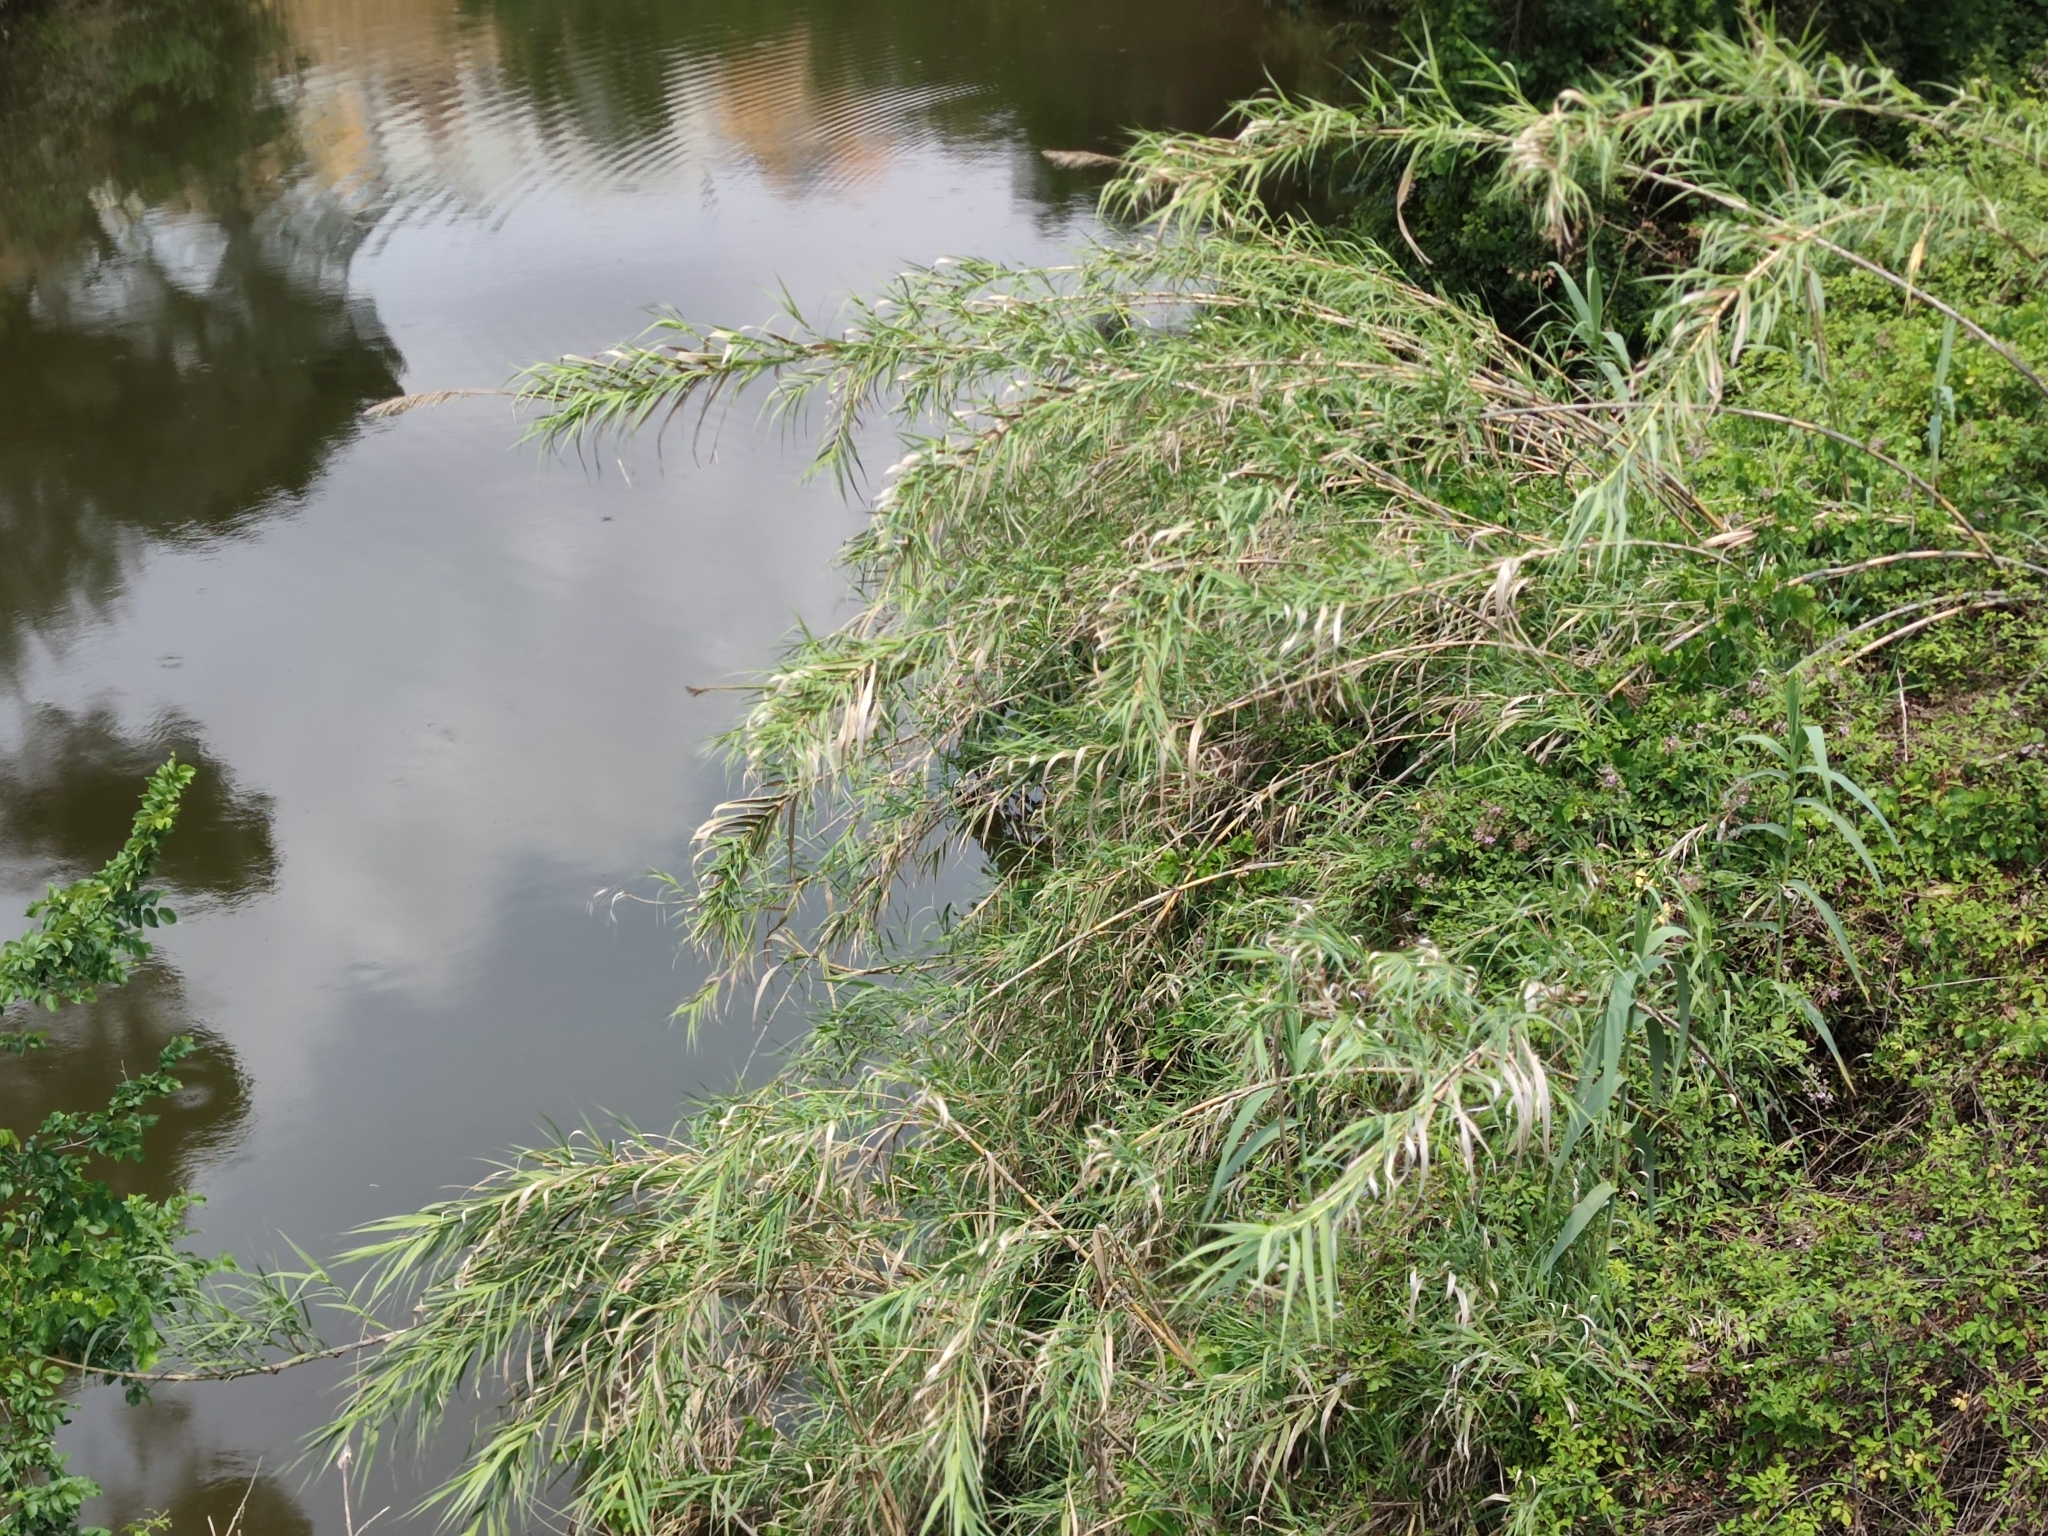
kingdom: Plantae
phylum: Tracheophyta
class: Liliopsida
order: Poales
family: Poaceae
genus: Arundo
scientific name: Arundo donax
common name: Giant reed
